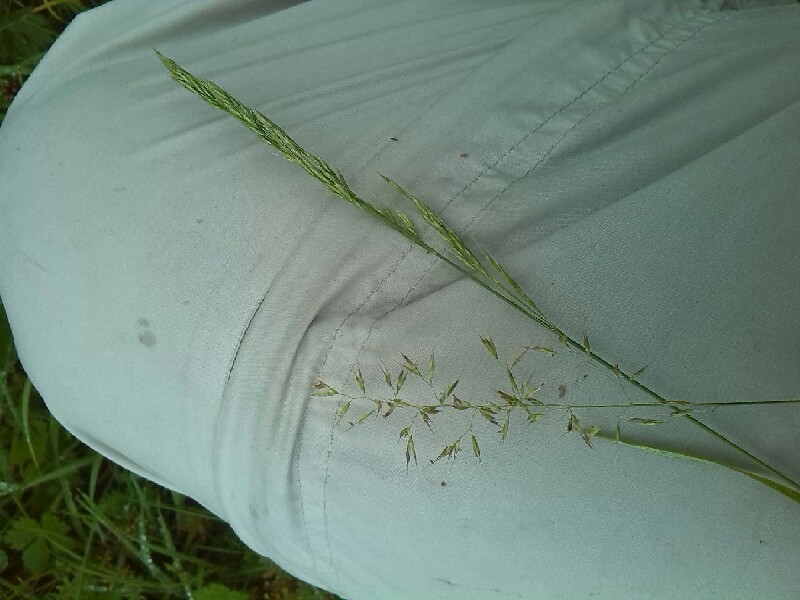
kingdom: Plantae
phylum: Tracheophyta
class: Liliopsida
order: Poales
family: Poaceae
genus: Trisetum
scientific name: Trisetum flavescens
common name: Yellow oat-grass
